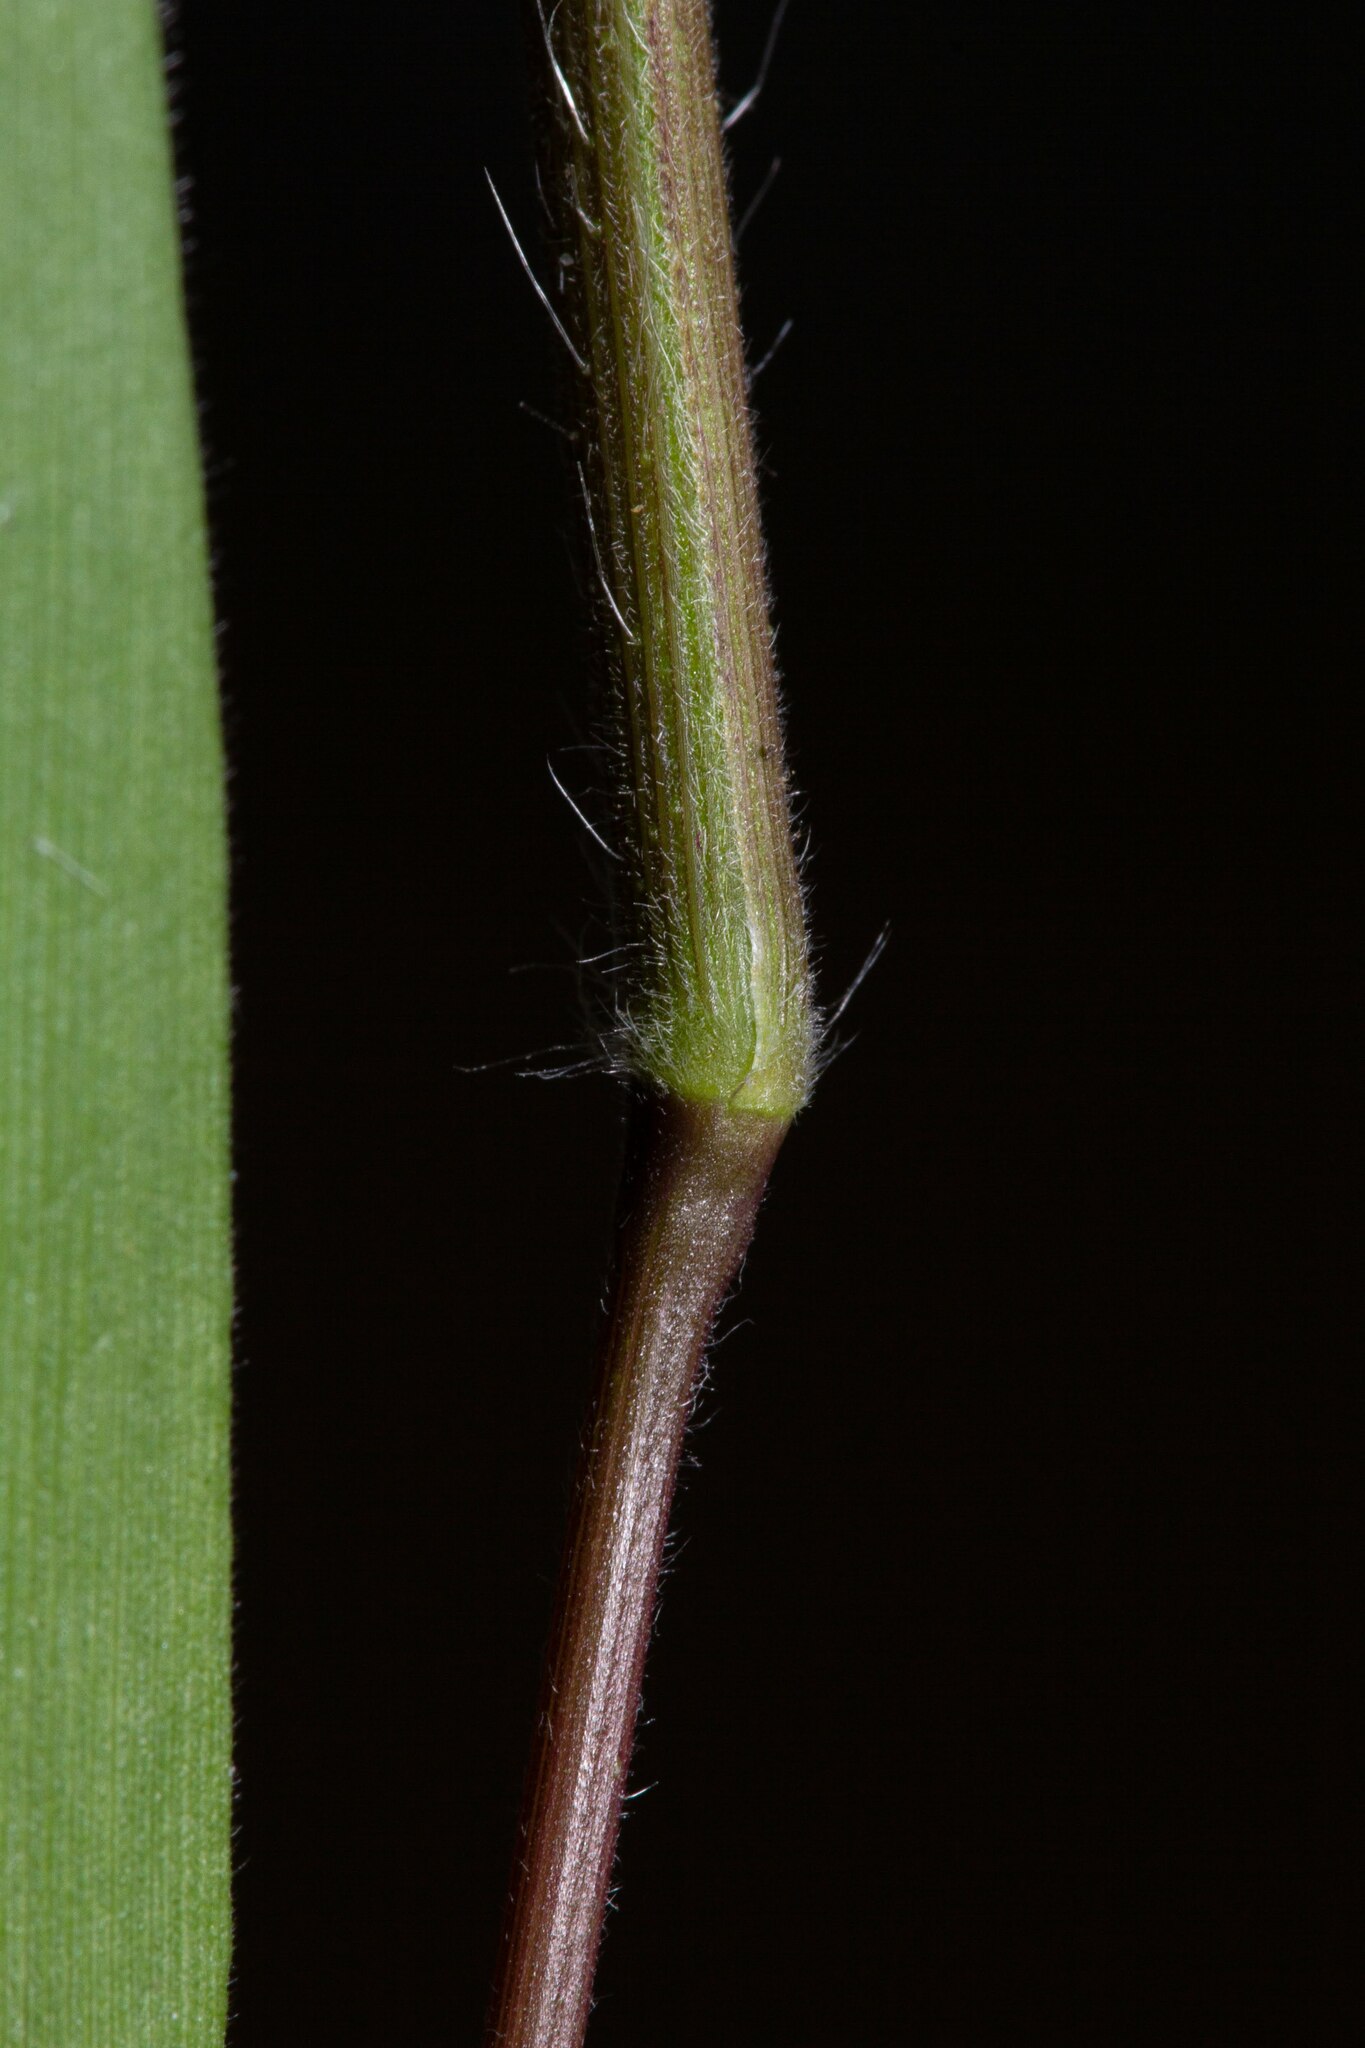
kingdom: Plantae
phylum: Tracheophyta
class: Liliopsida
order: Poales
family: Poaceae
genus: Dichanthelium
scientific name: Dichanthelium scribnerianum
